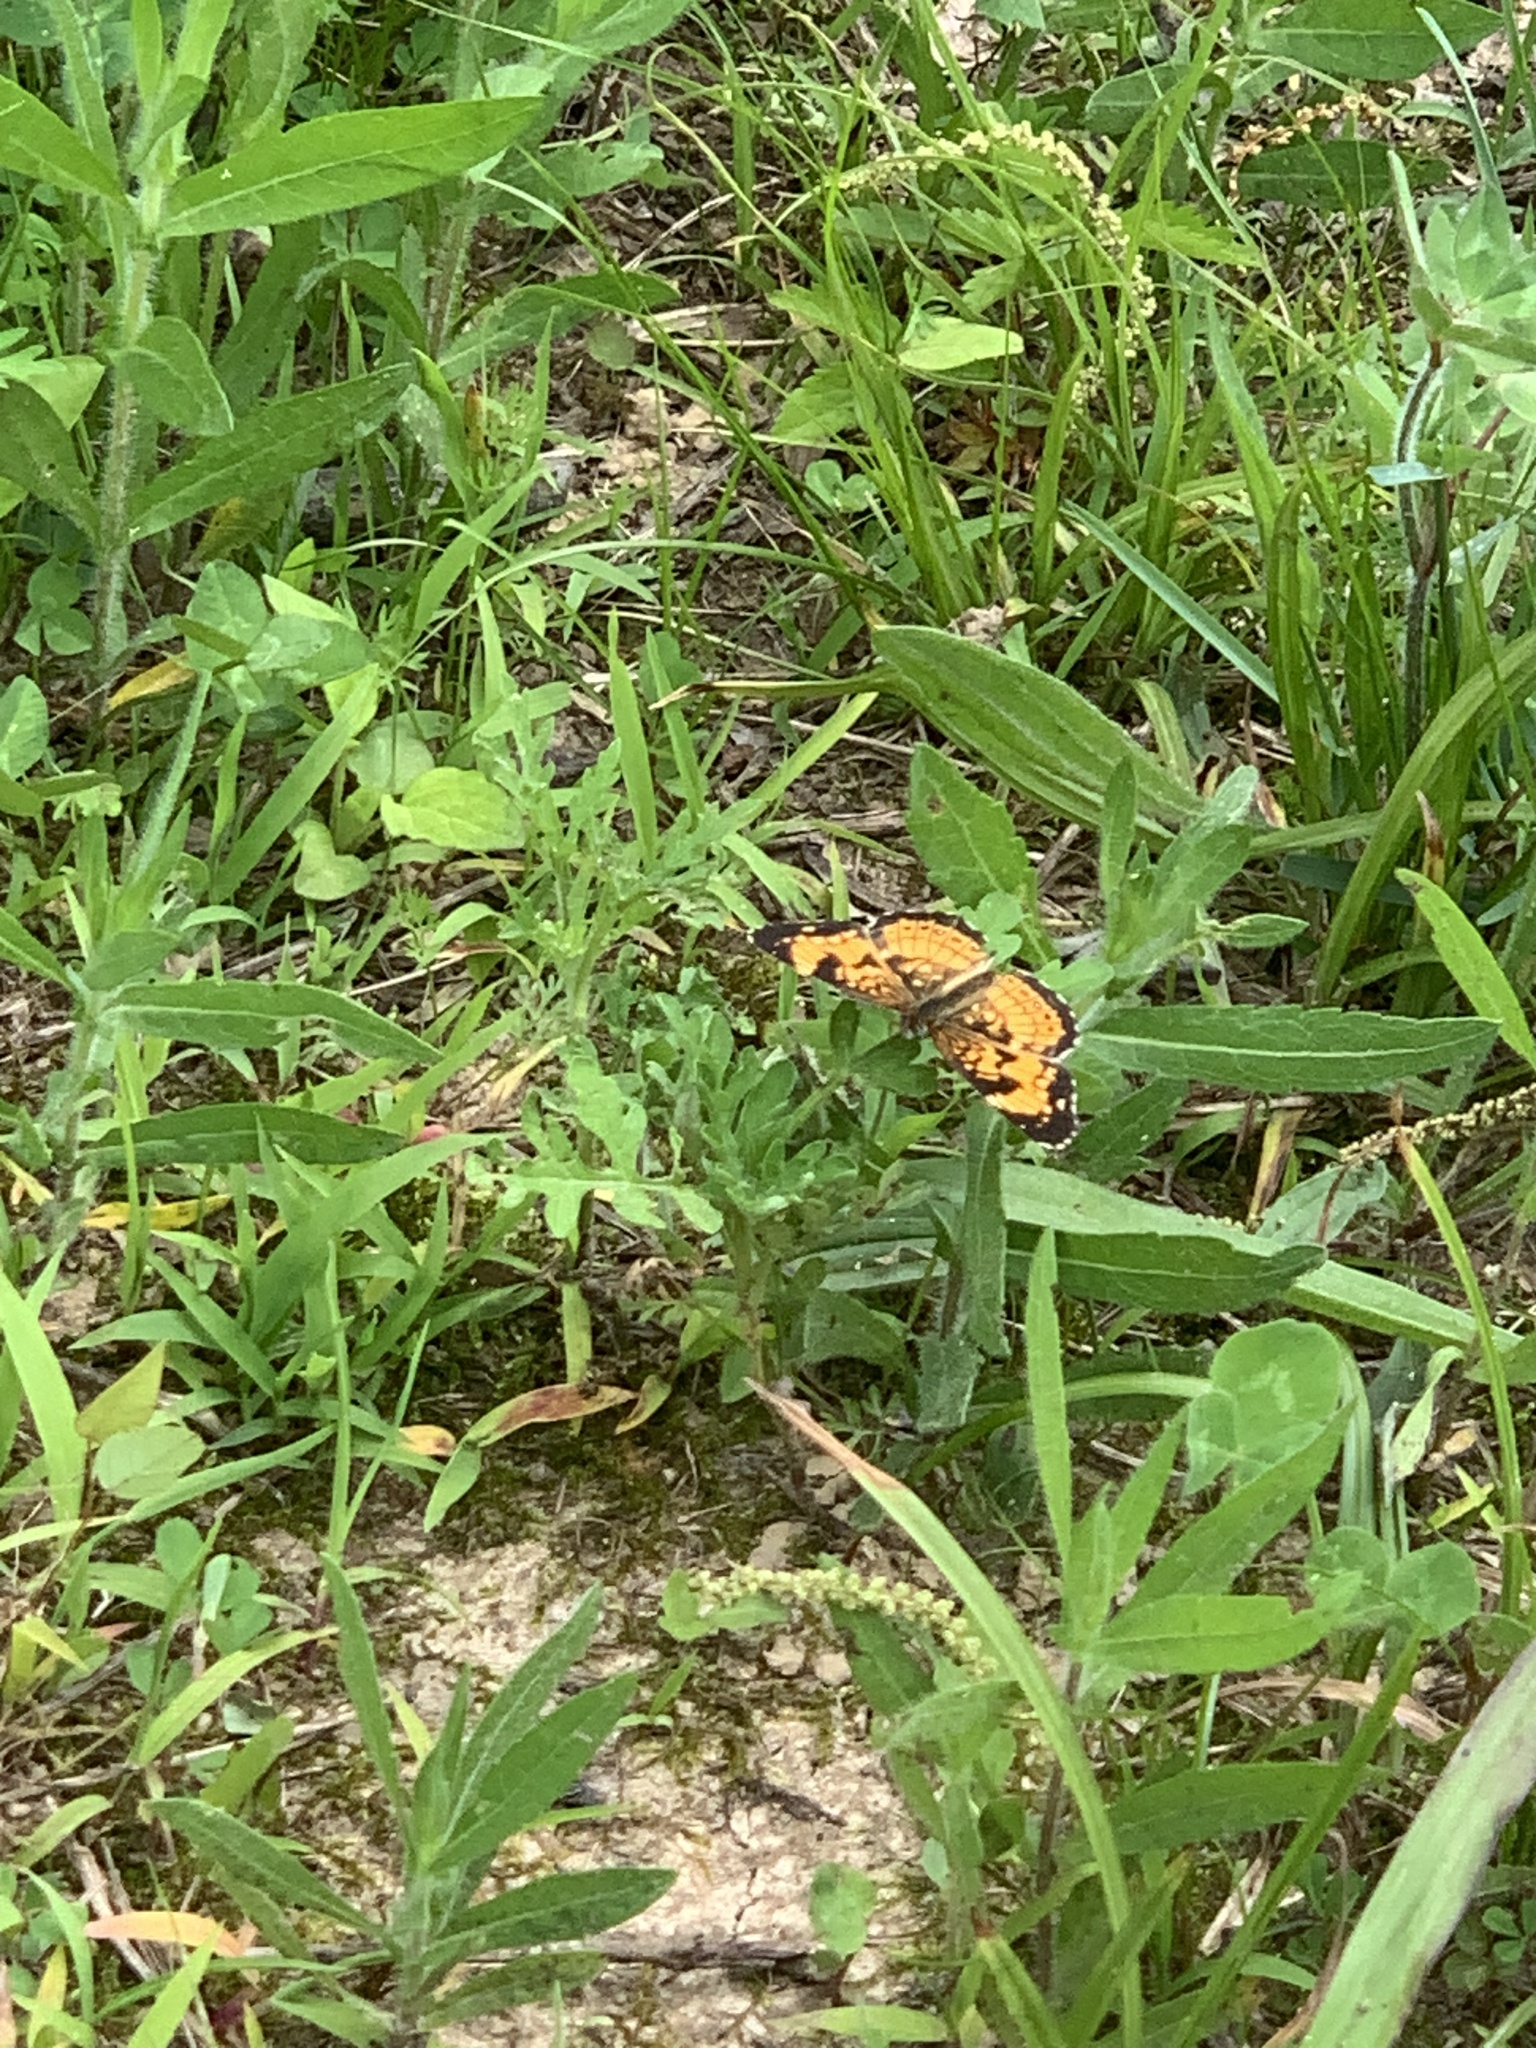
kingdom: Animalia
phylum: Arthropoda
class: Insecta
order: Lepidoptera
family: Nymphalidae
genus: Chlosyne
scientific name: Chlosyne nycteis
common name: Silvery checkerspot
